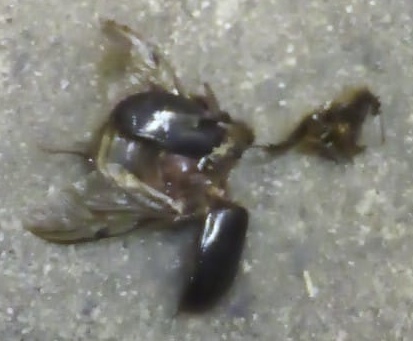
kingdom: Animalia
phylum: Arthropoda
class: Insecta
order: Coleoptera
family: Pleocomidae
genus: Pleocoma
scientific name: Pleocoma australis
